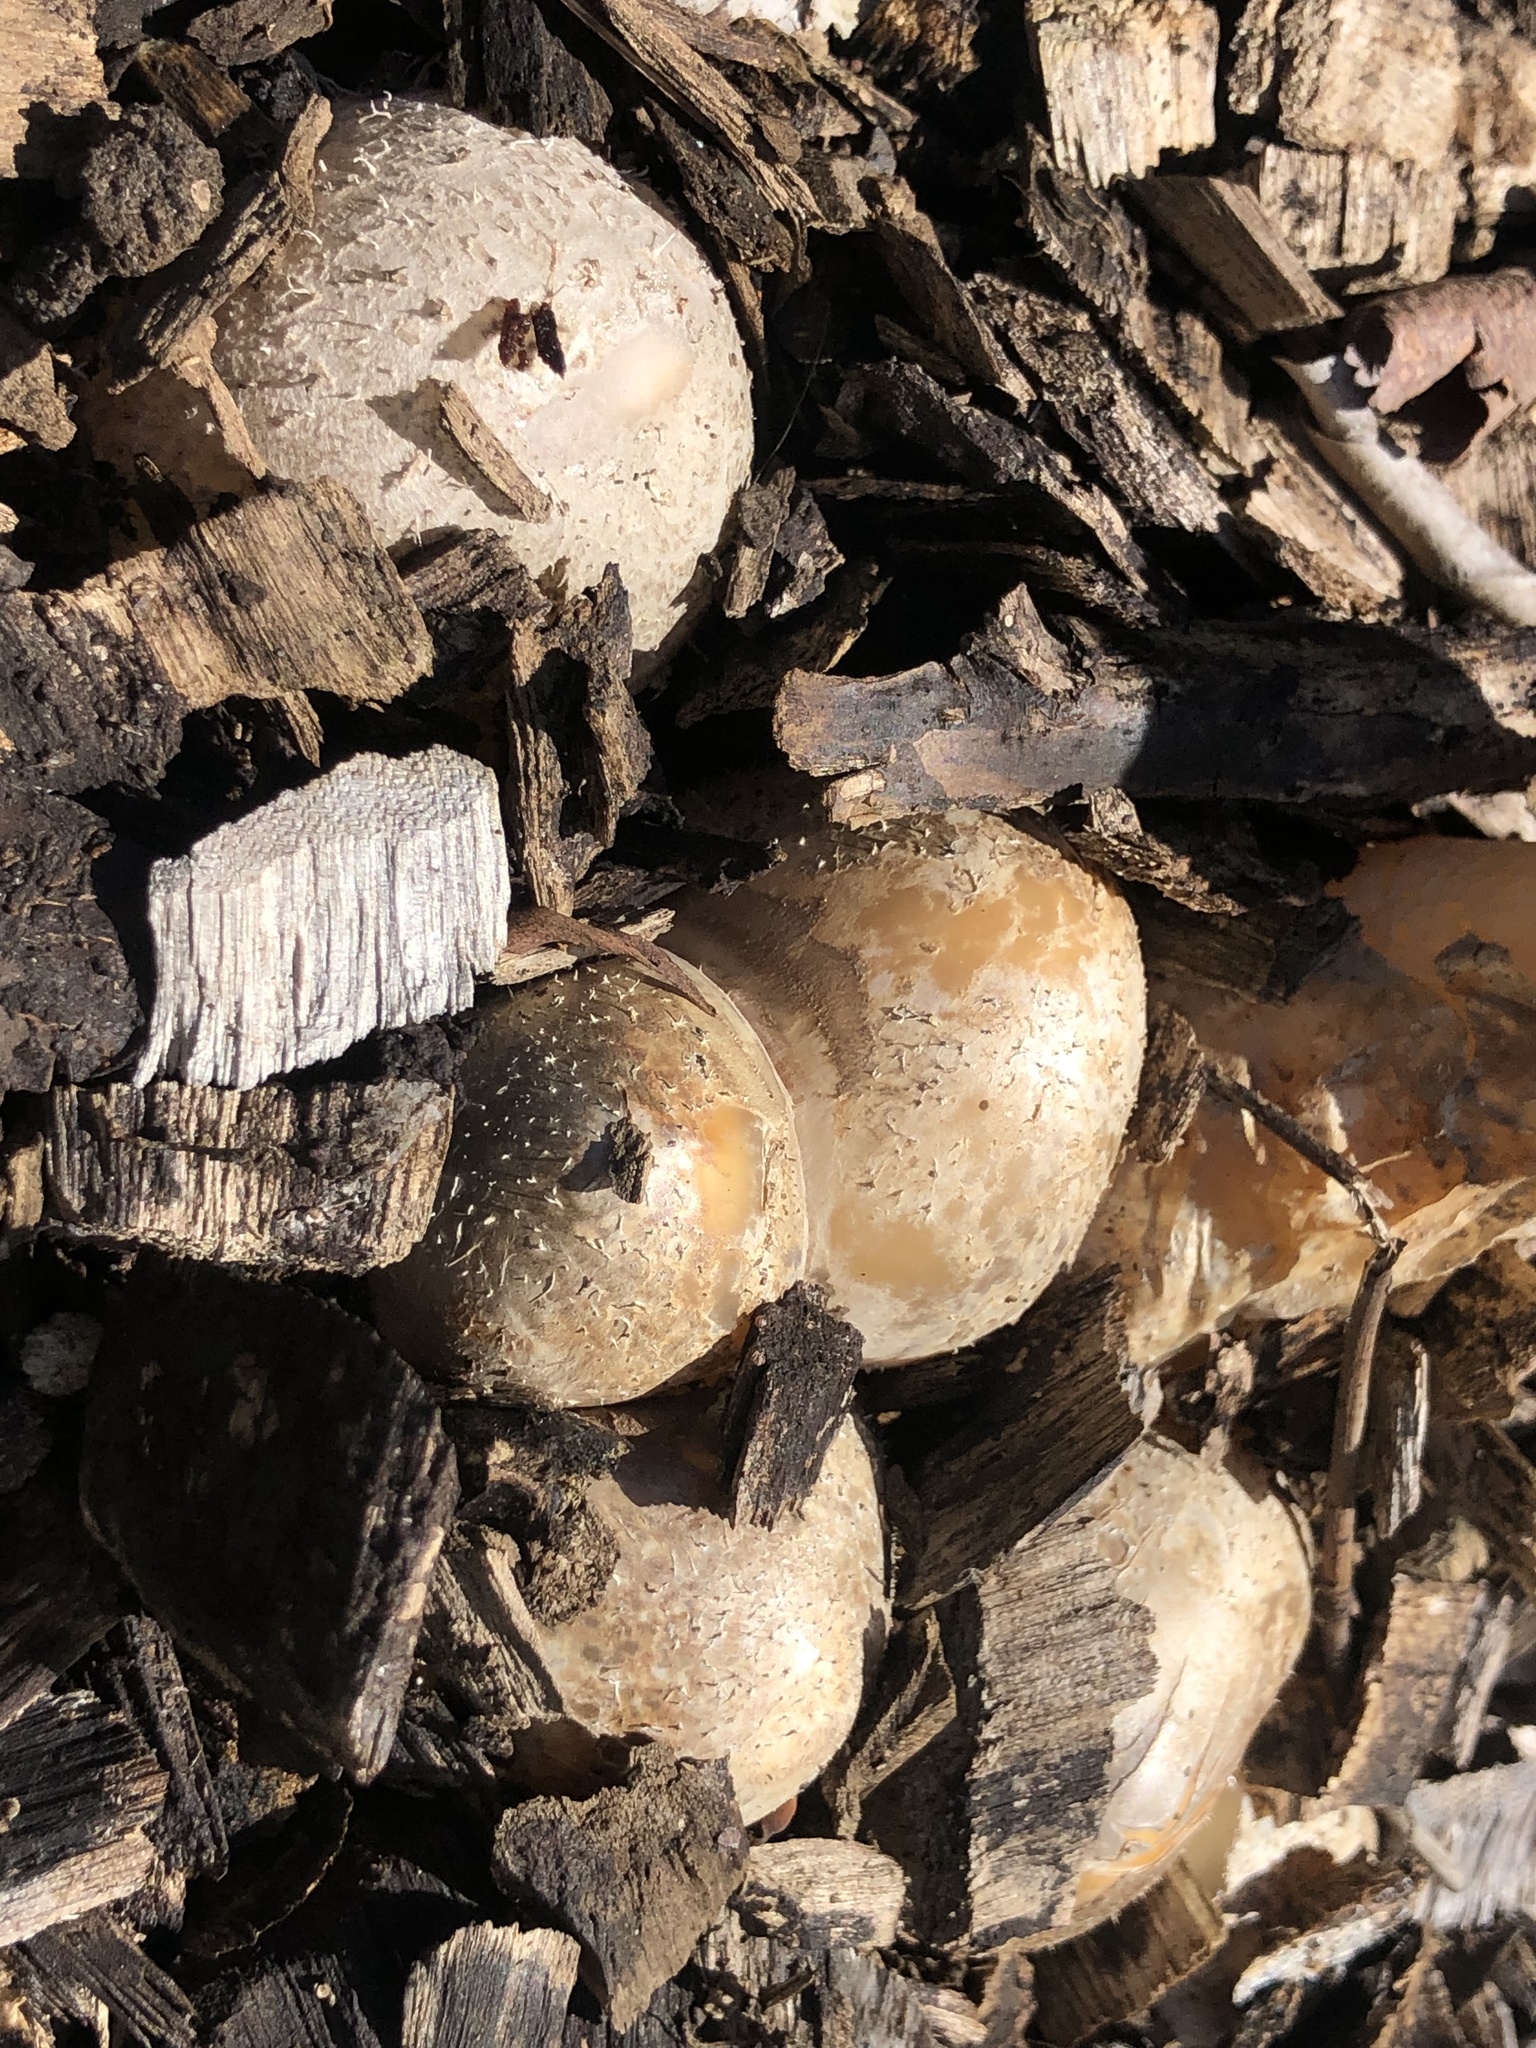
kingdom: Fungi
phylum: Basidiomycota
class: Agaricomycetes
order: Phallales
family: Phallaceae
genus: Phallus
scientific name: Phallus multicolor
